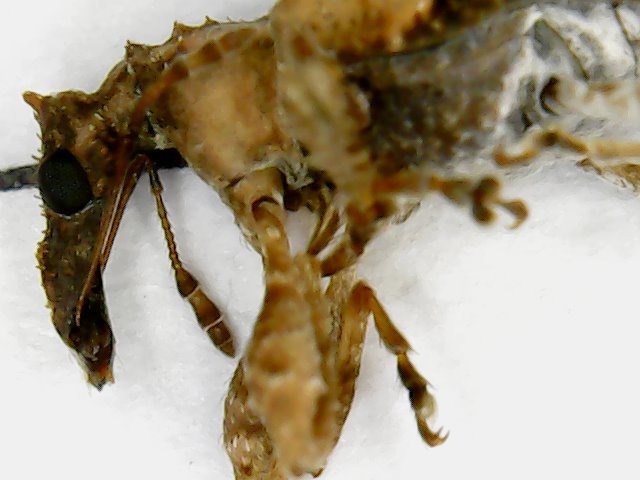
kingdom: Animalia
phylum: Arthropoda
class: Insecta
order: Coleoptera
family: Curculionidae
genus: Stephanorhynchus
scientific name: Stephanorhynchus curvipes
